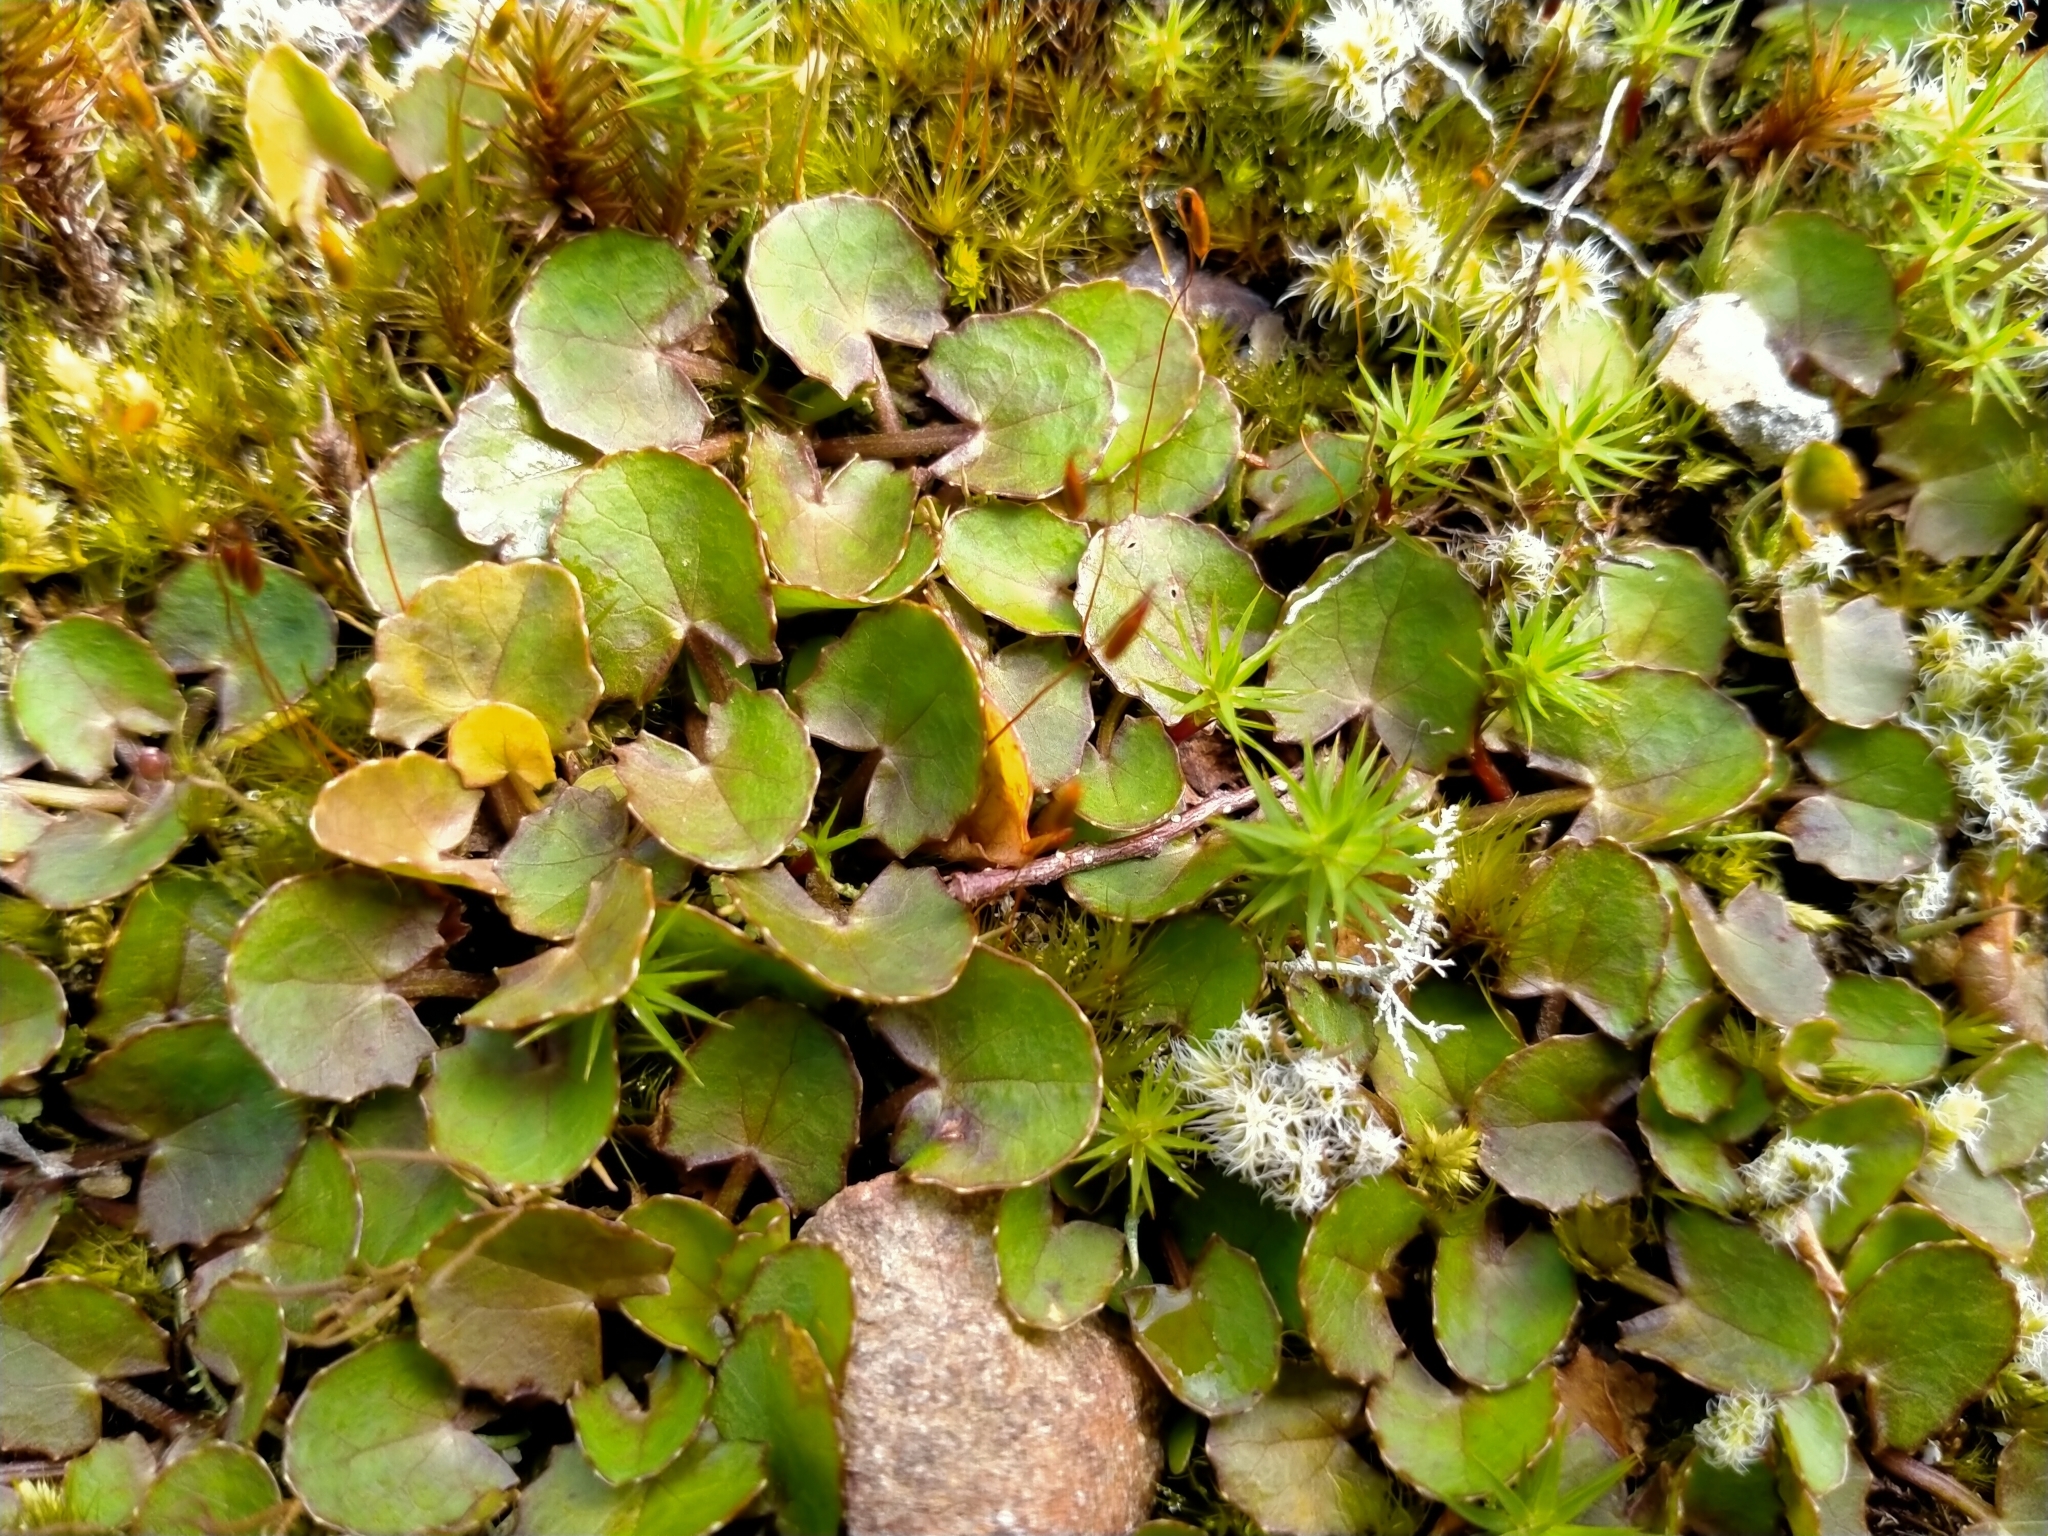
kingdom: Plantae
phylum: Tracheophyta
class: Magnoliopsida
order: Apiales
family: Apiaceae
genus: Centella
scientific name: Centella uniflora
